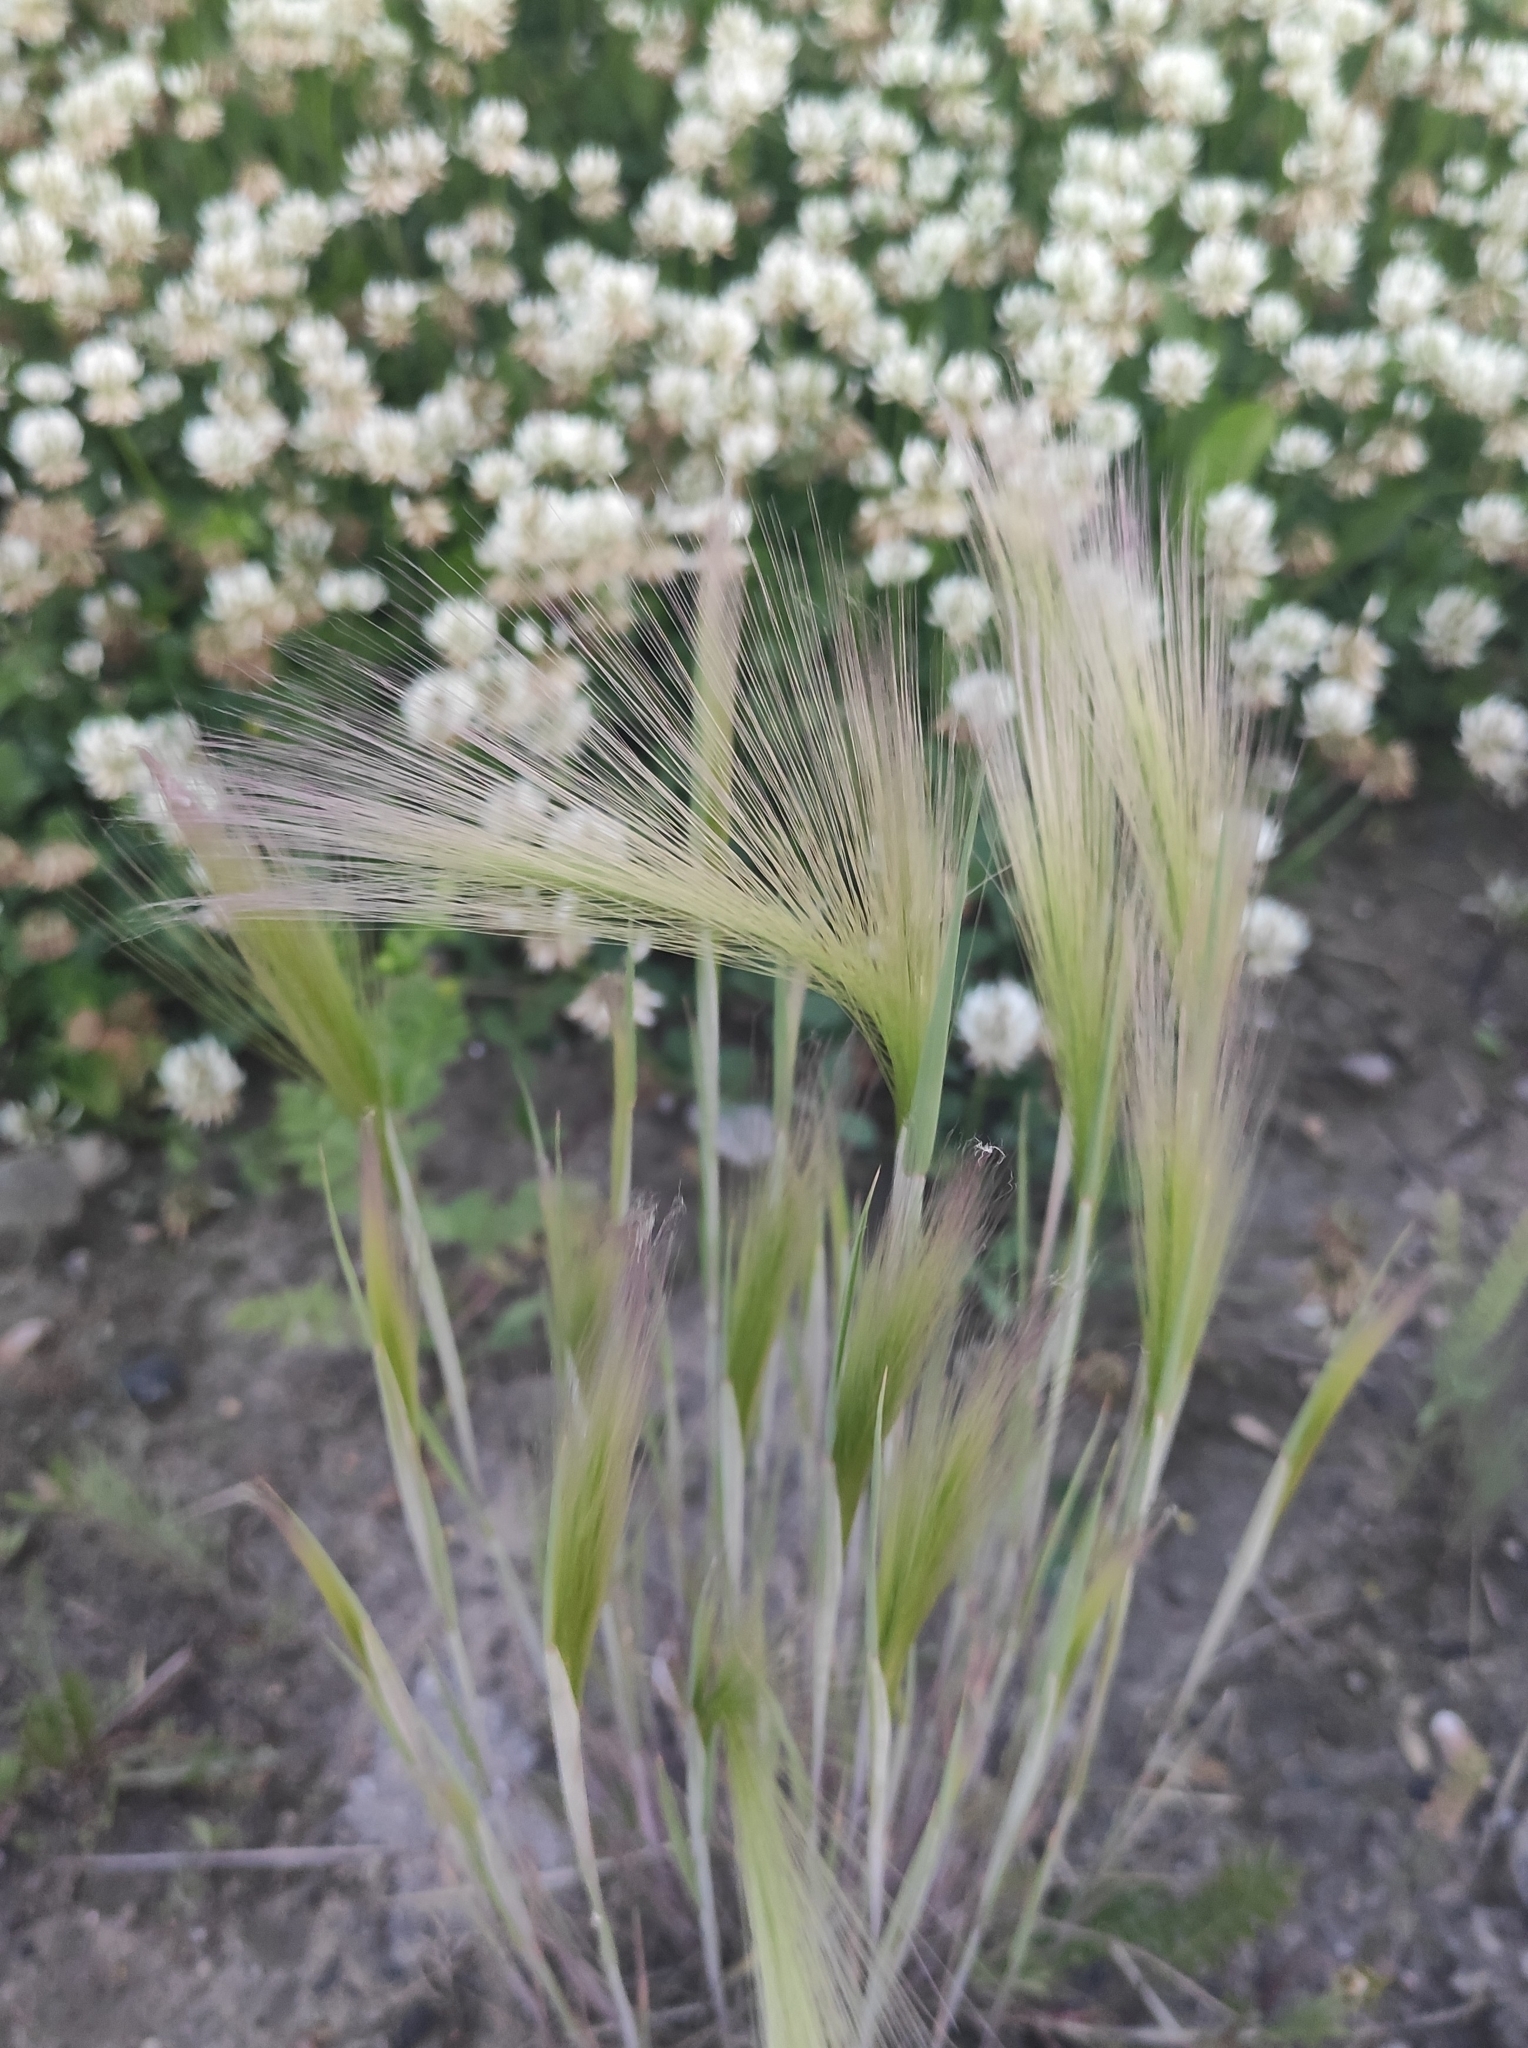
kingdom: Plantae
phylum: Tracheophyta
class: Liliopsida
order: Poales
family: Poaceae
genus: Hordeum
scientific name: Hordeum jubatum
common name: Foxtail barley
